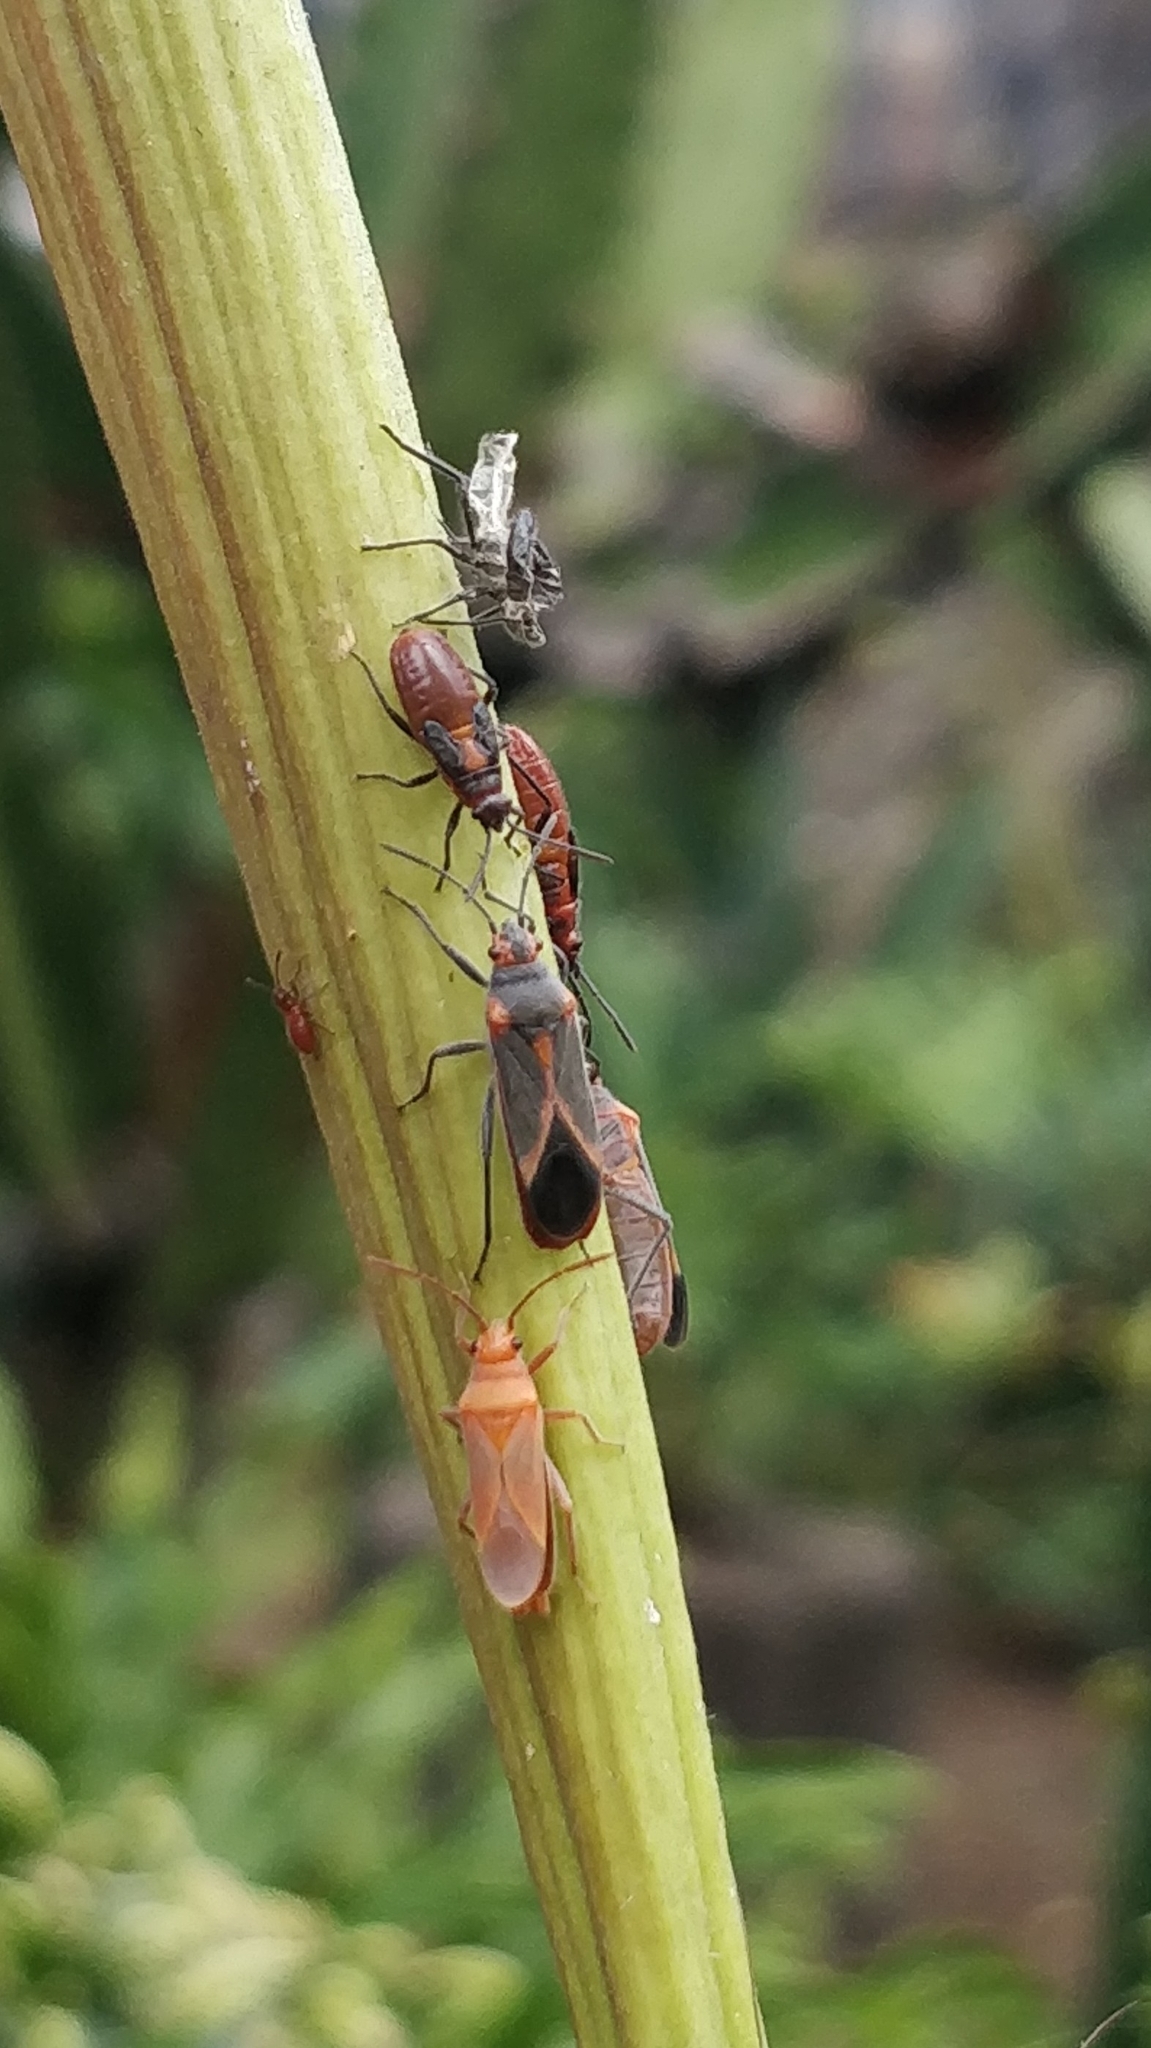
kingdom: Animalia
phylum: Arthropoda
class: Insecta
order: Hemiptera
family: Lygaeidae
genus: Caenocoris
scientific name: Caenocoris nerii
